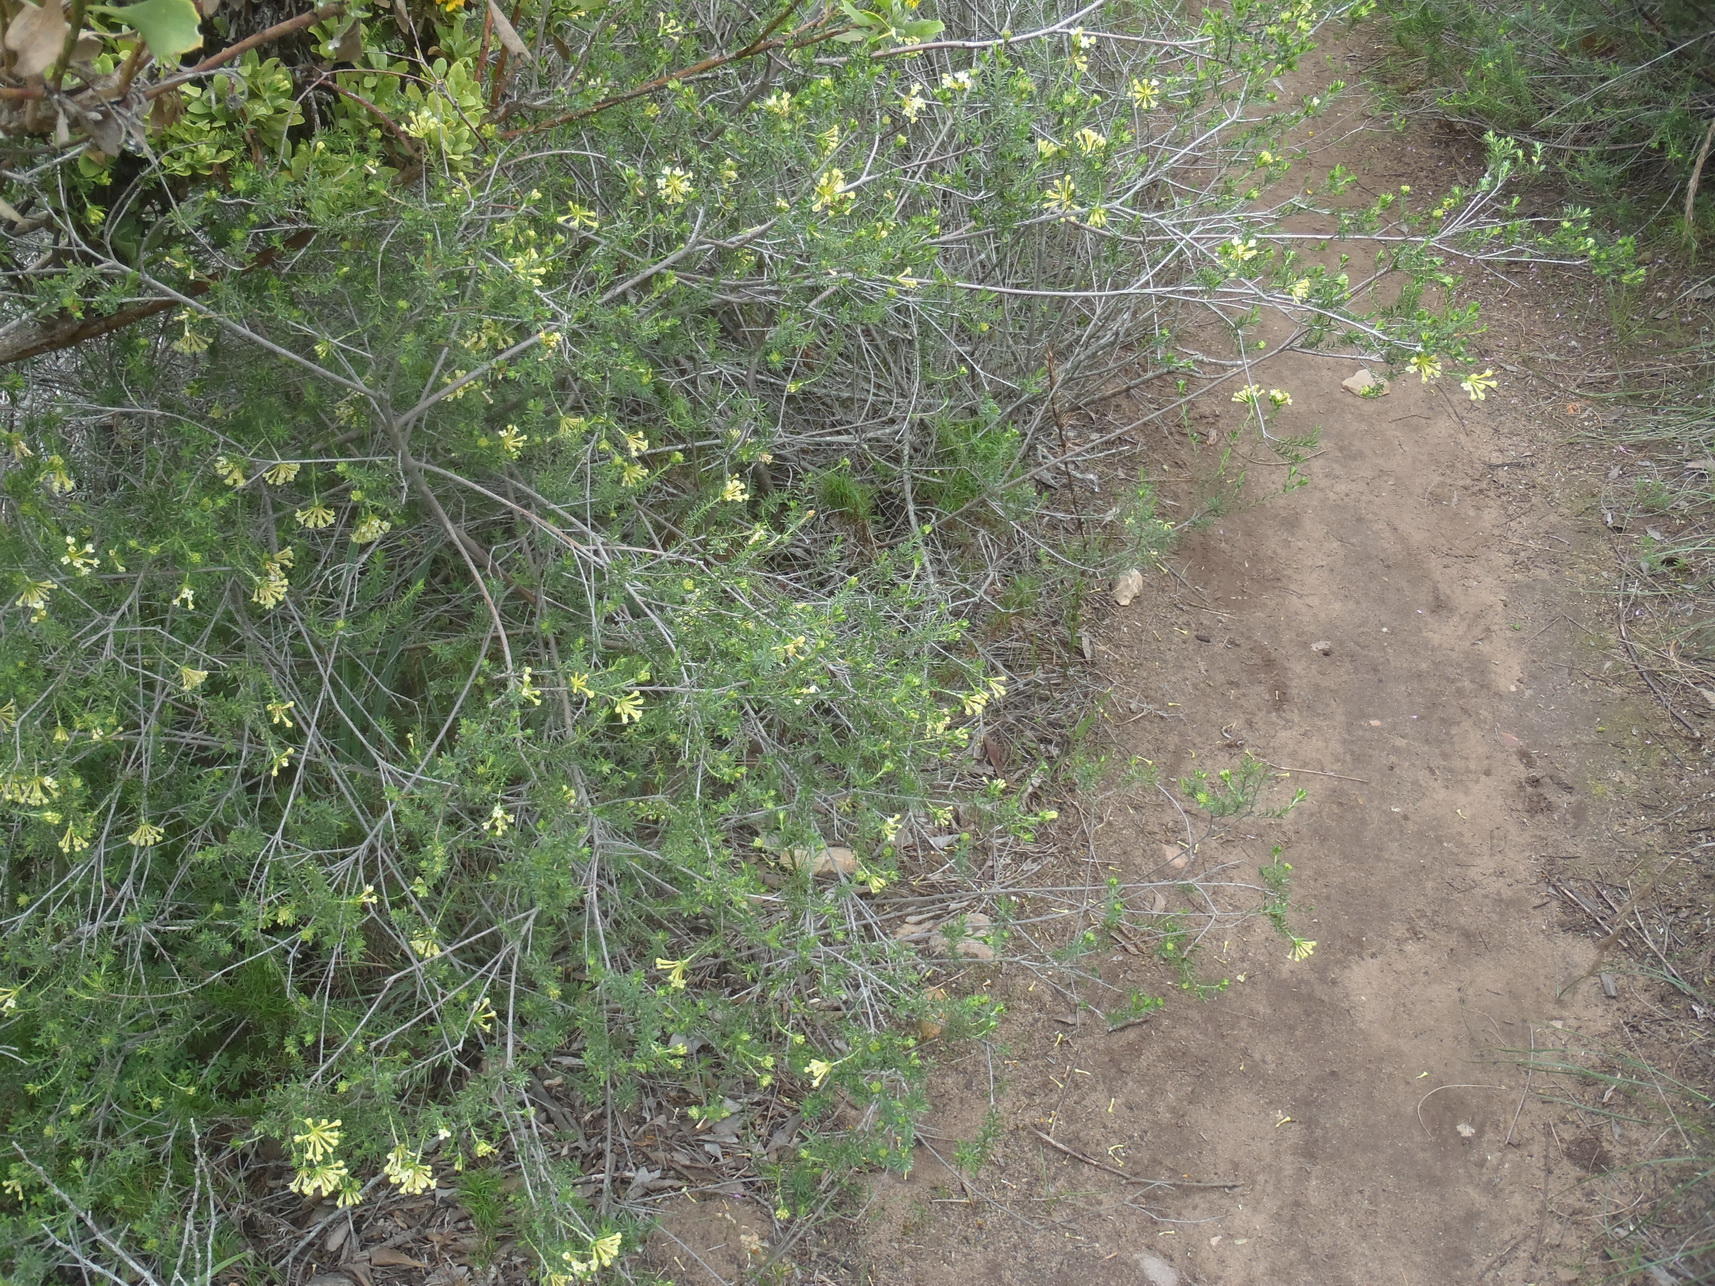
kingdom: Plantae
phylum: Tracheophyta
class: Magnoliopsida
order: Malvales
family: Thymelaeaceae
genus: Gnidia
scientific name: Gnidia squarrosa
